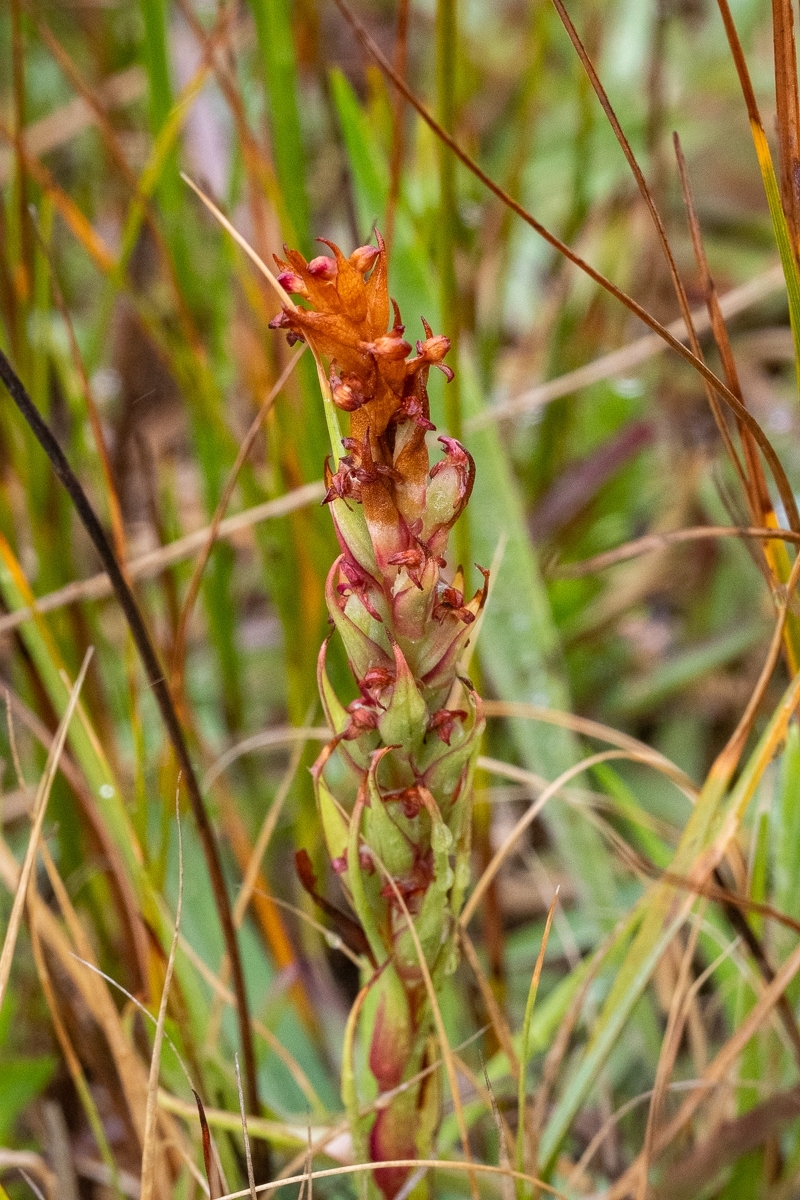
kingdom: Plantae
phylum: Tracheophyta
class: Liliopsida
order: Asparagales
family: Orchidaceae
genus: Disa
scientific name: Disa bracteata
